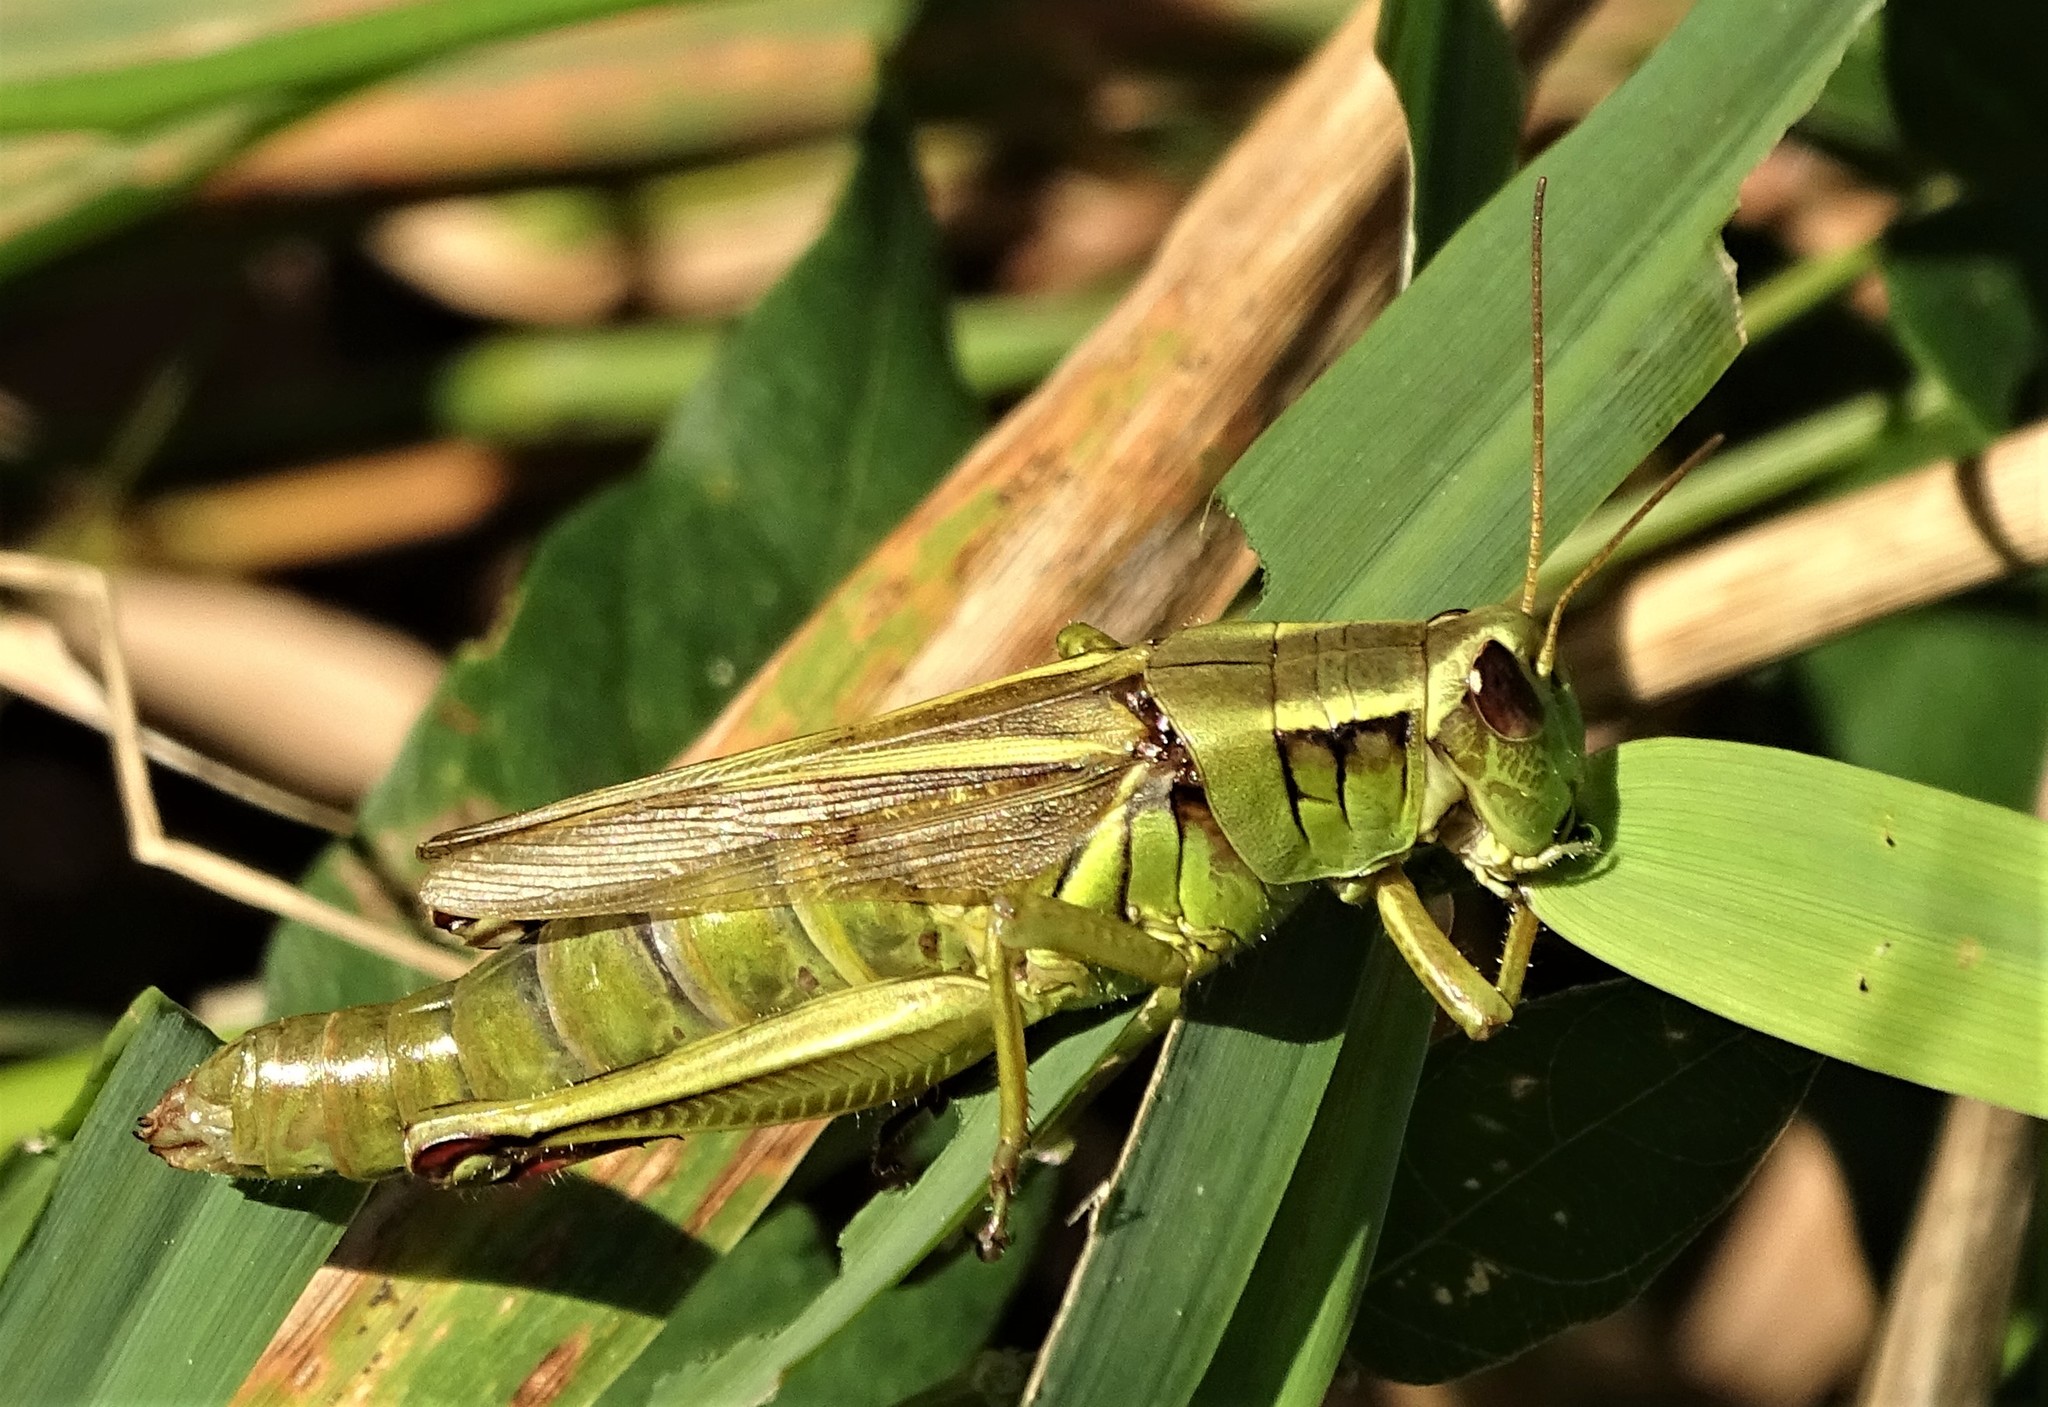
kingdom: Animalia
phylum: Arthropoda
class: Insecta
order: Orthoptera
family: Acrididae
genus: Melanoplus
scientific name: Melanoplus bivittatus
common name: Two-striped grasshopper
